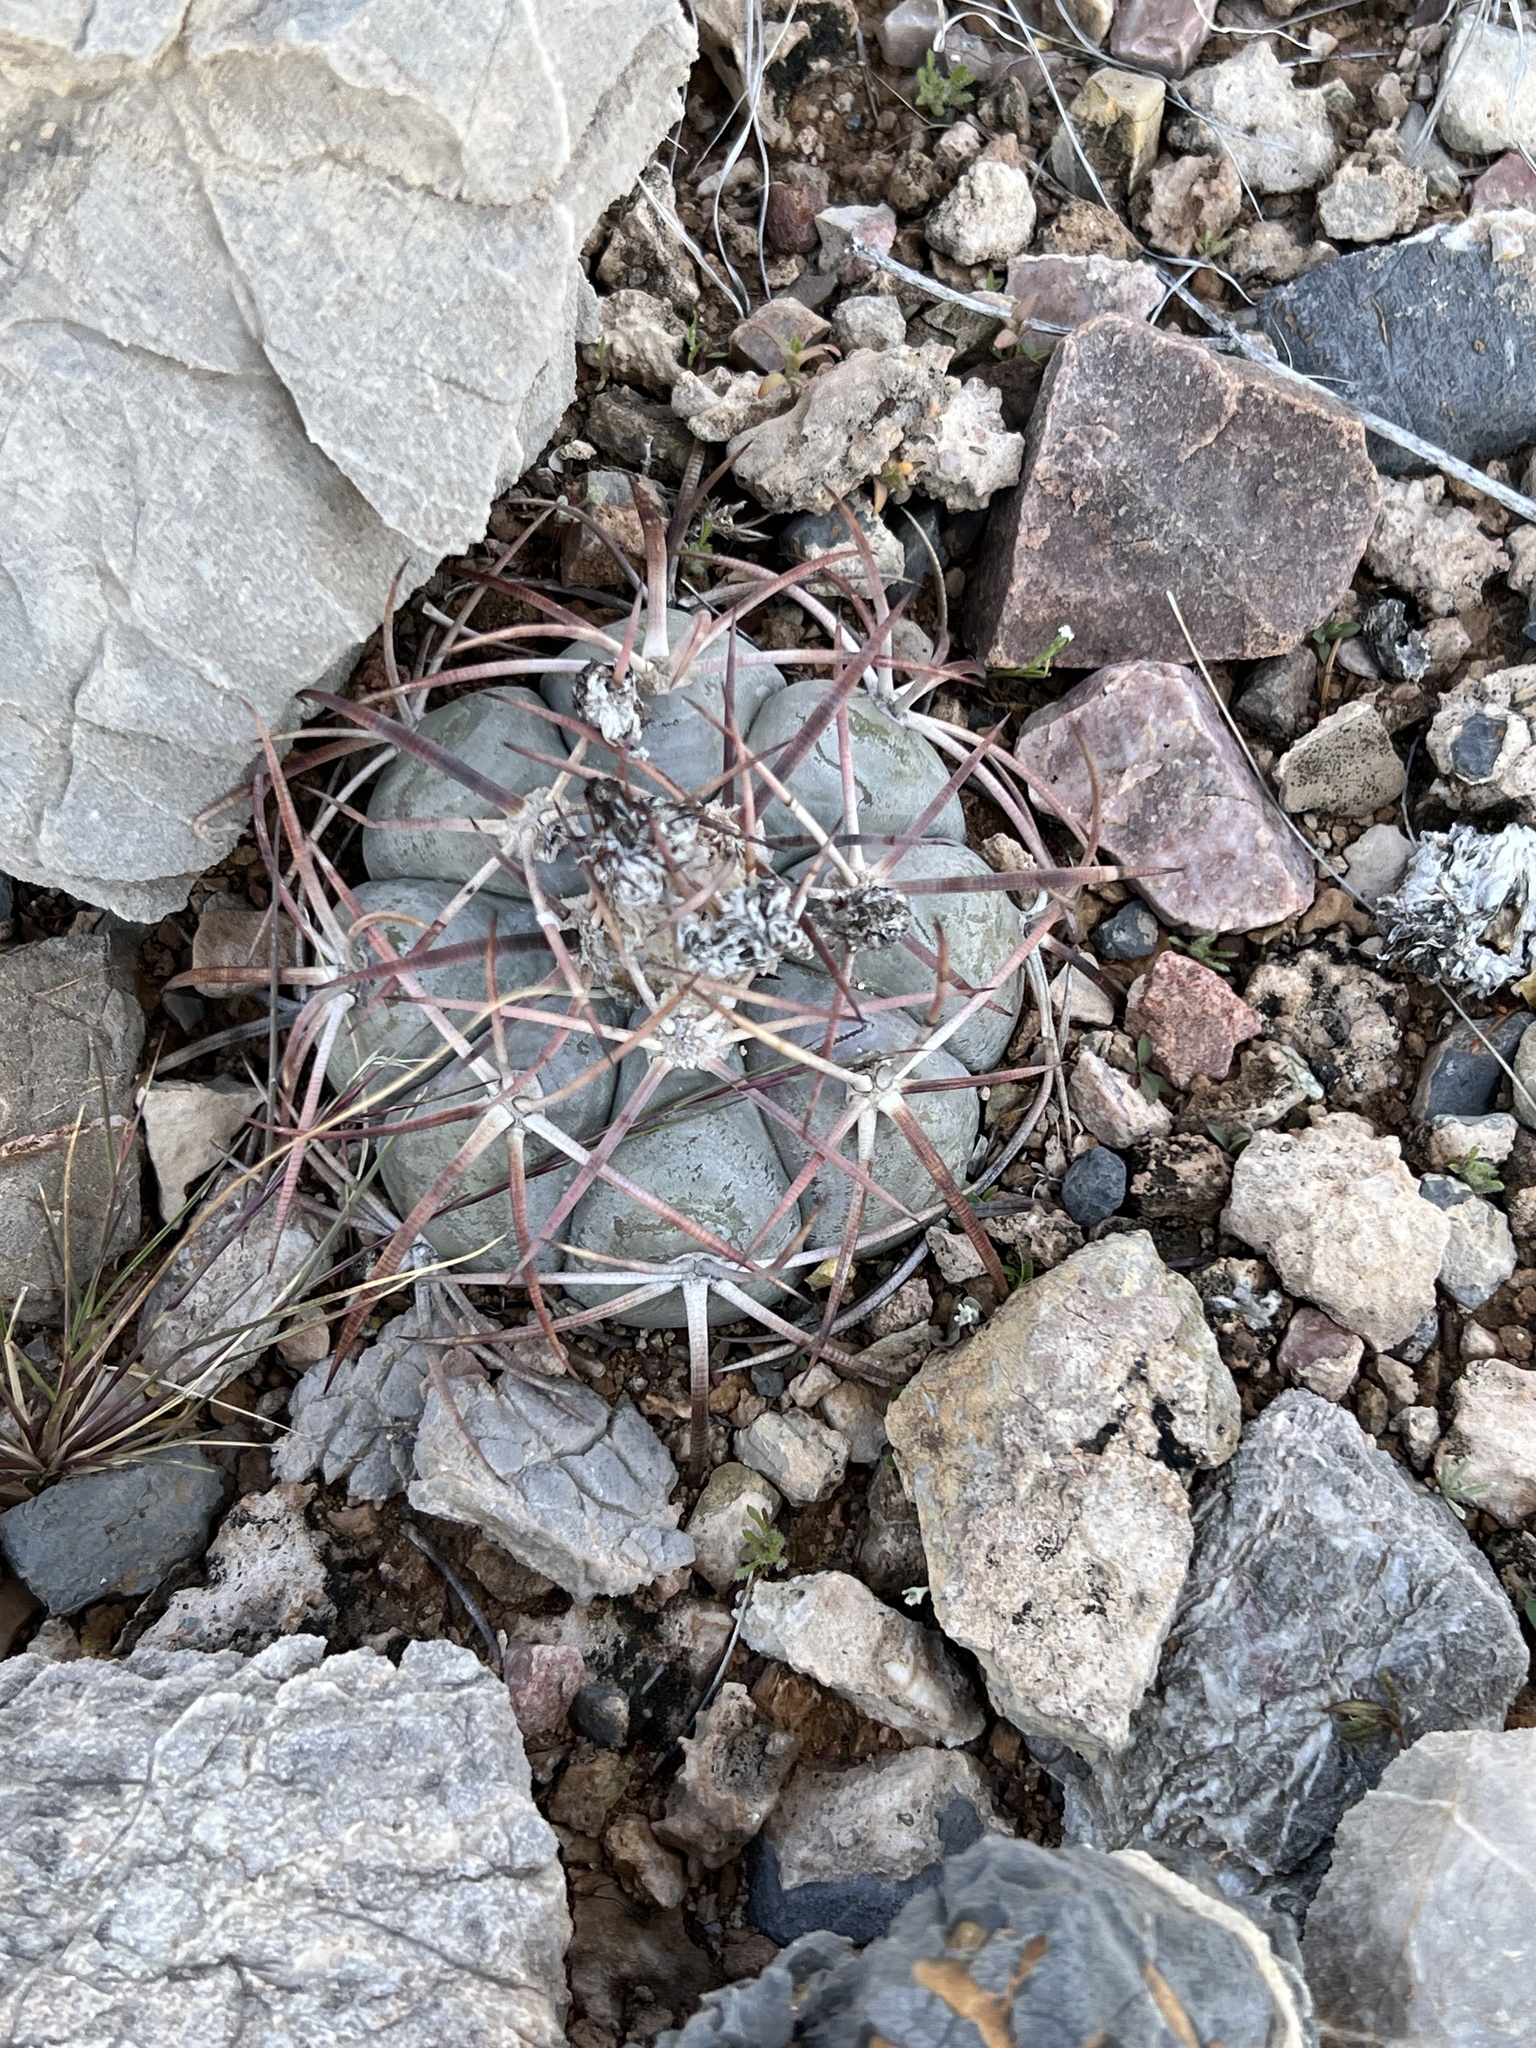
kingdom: Plantae
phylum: Tracheophyta
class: Magnoliopsida
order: Caryophyllales
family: Cactaceae
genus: Echinocactus
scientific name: Echinocactus horizonthalonius
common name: Devilshead
